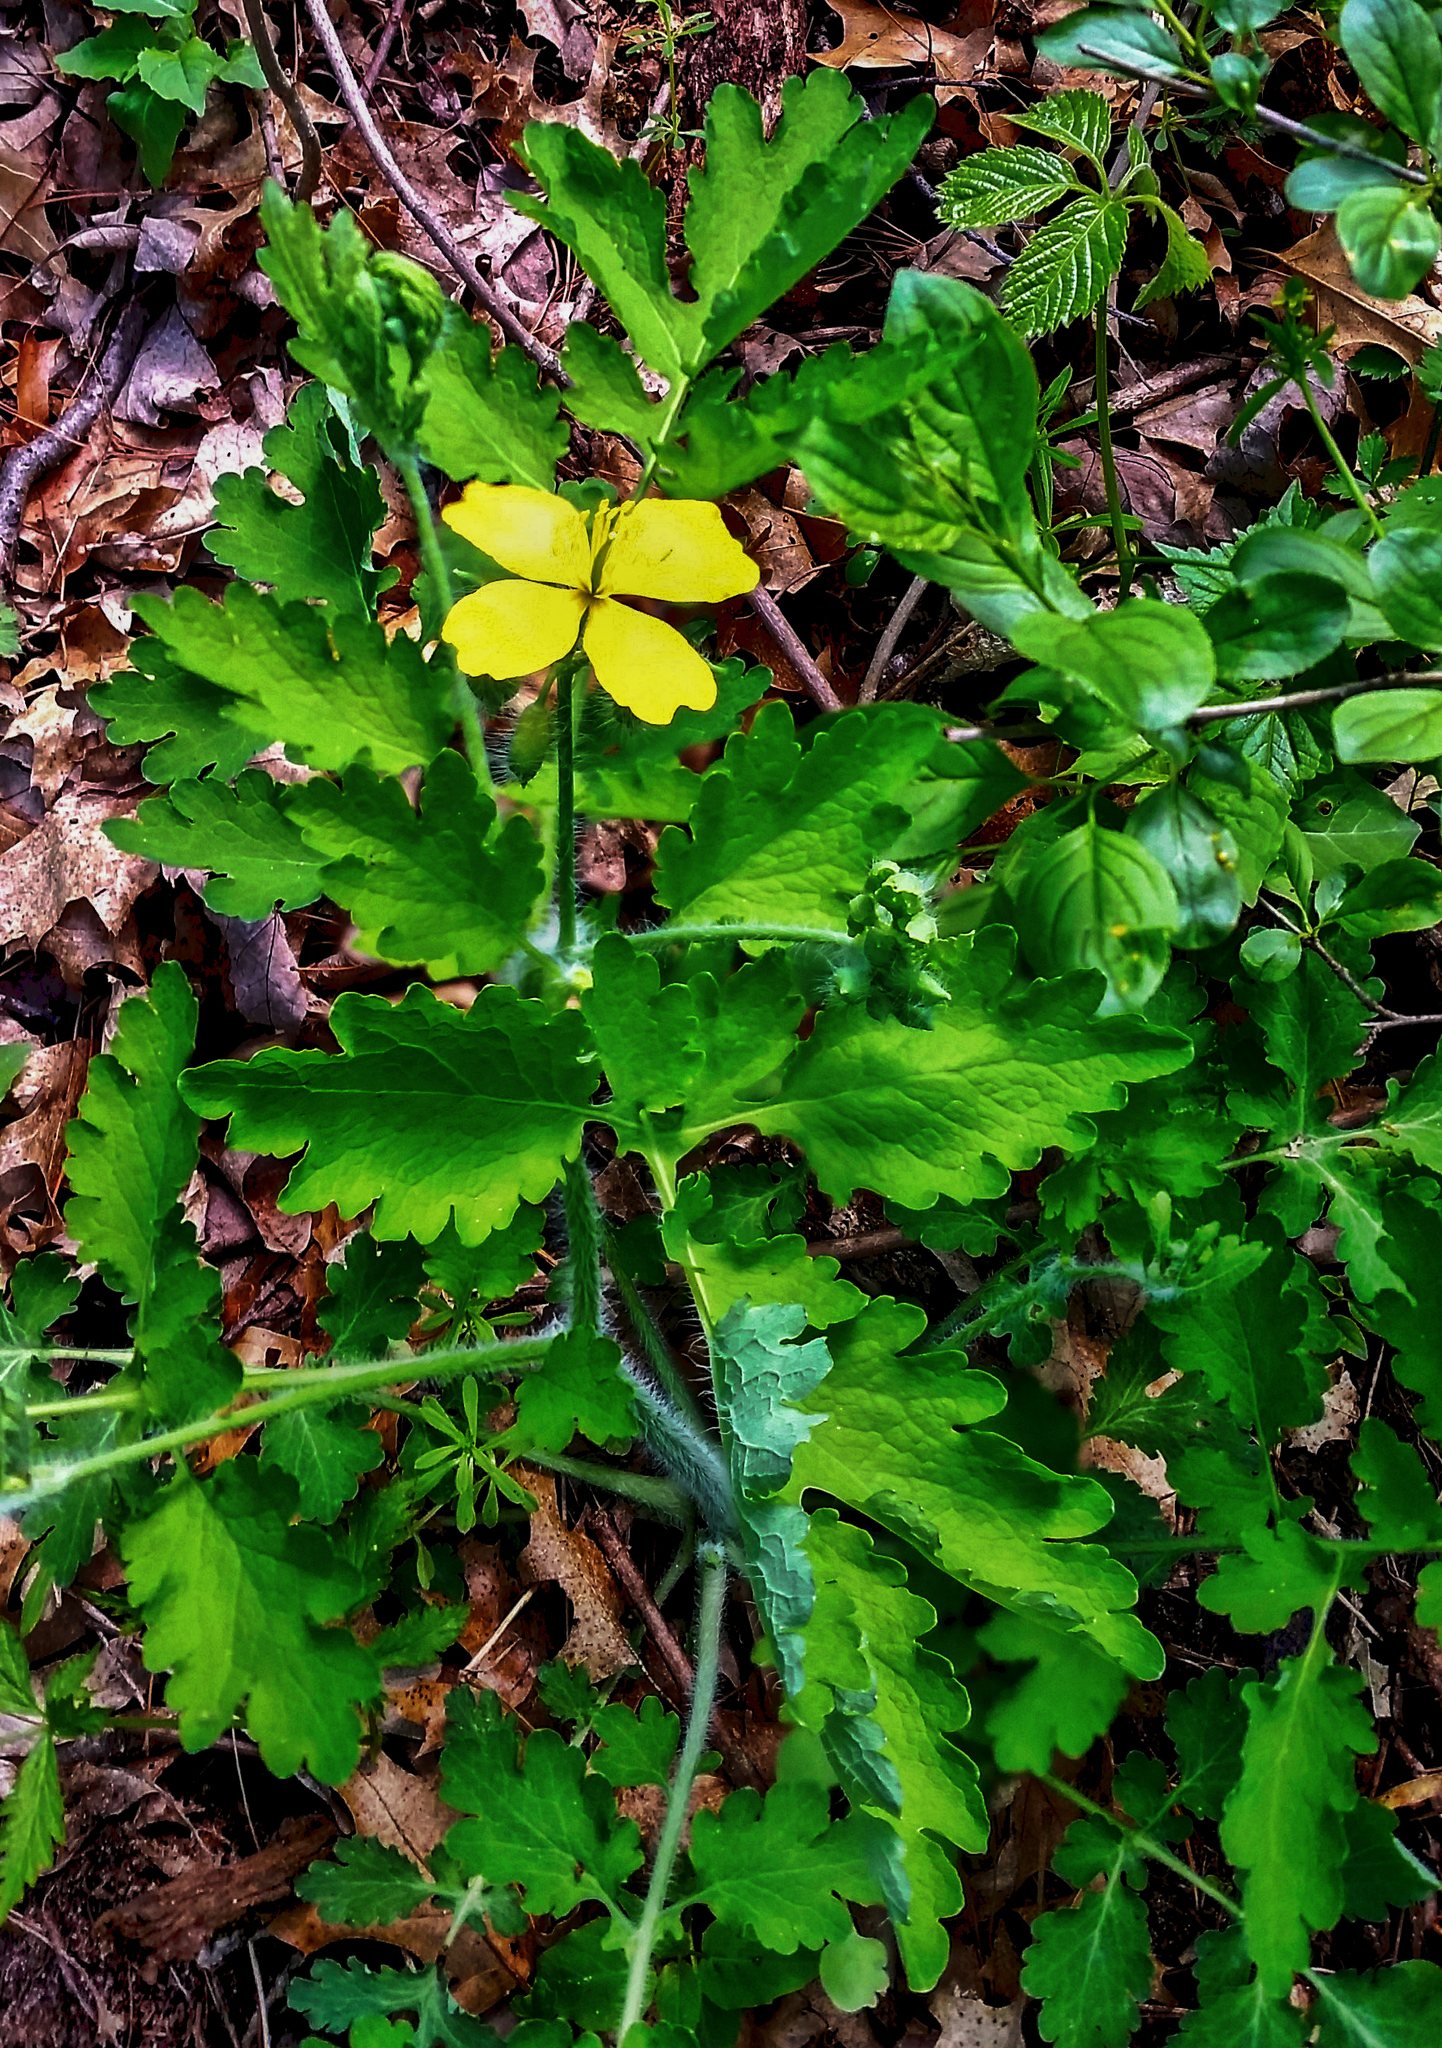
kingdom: Plantae
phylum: Tracheophyta
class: Magnoliopsida
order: Ranunculales
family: Papaveraceae
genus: Chelidonium
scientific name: Chelidonium majus
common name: Greater celandine
